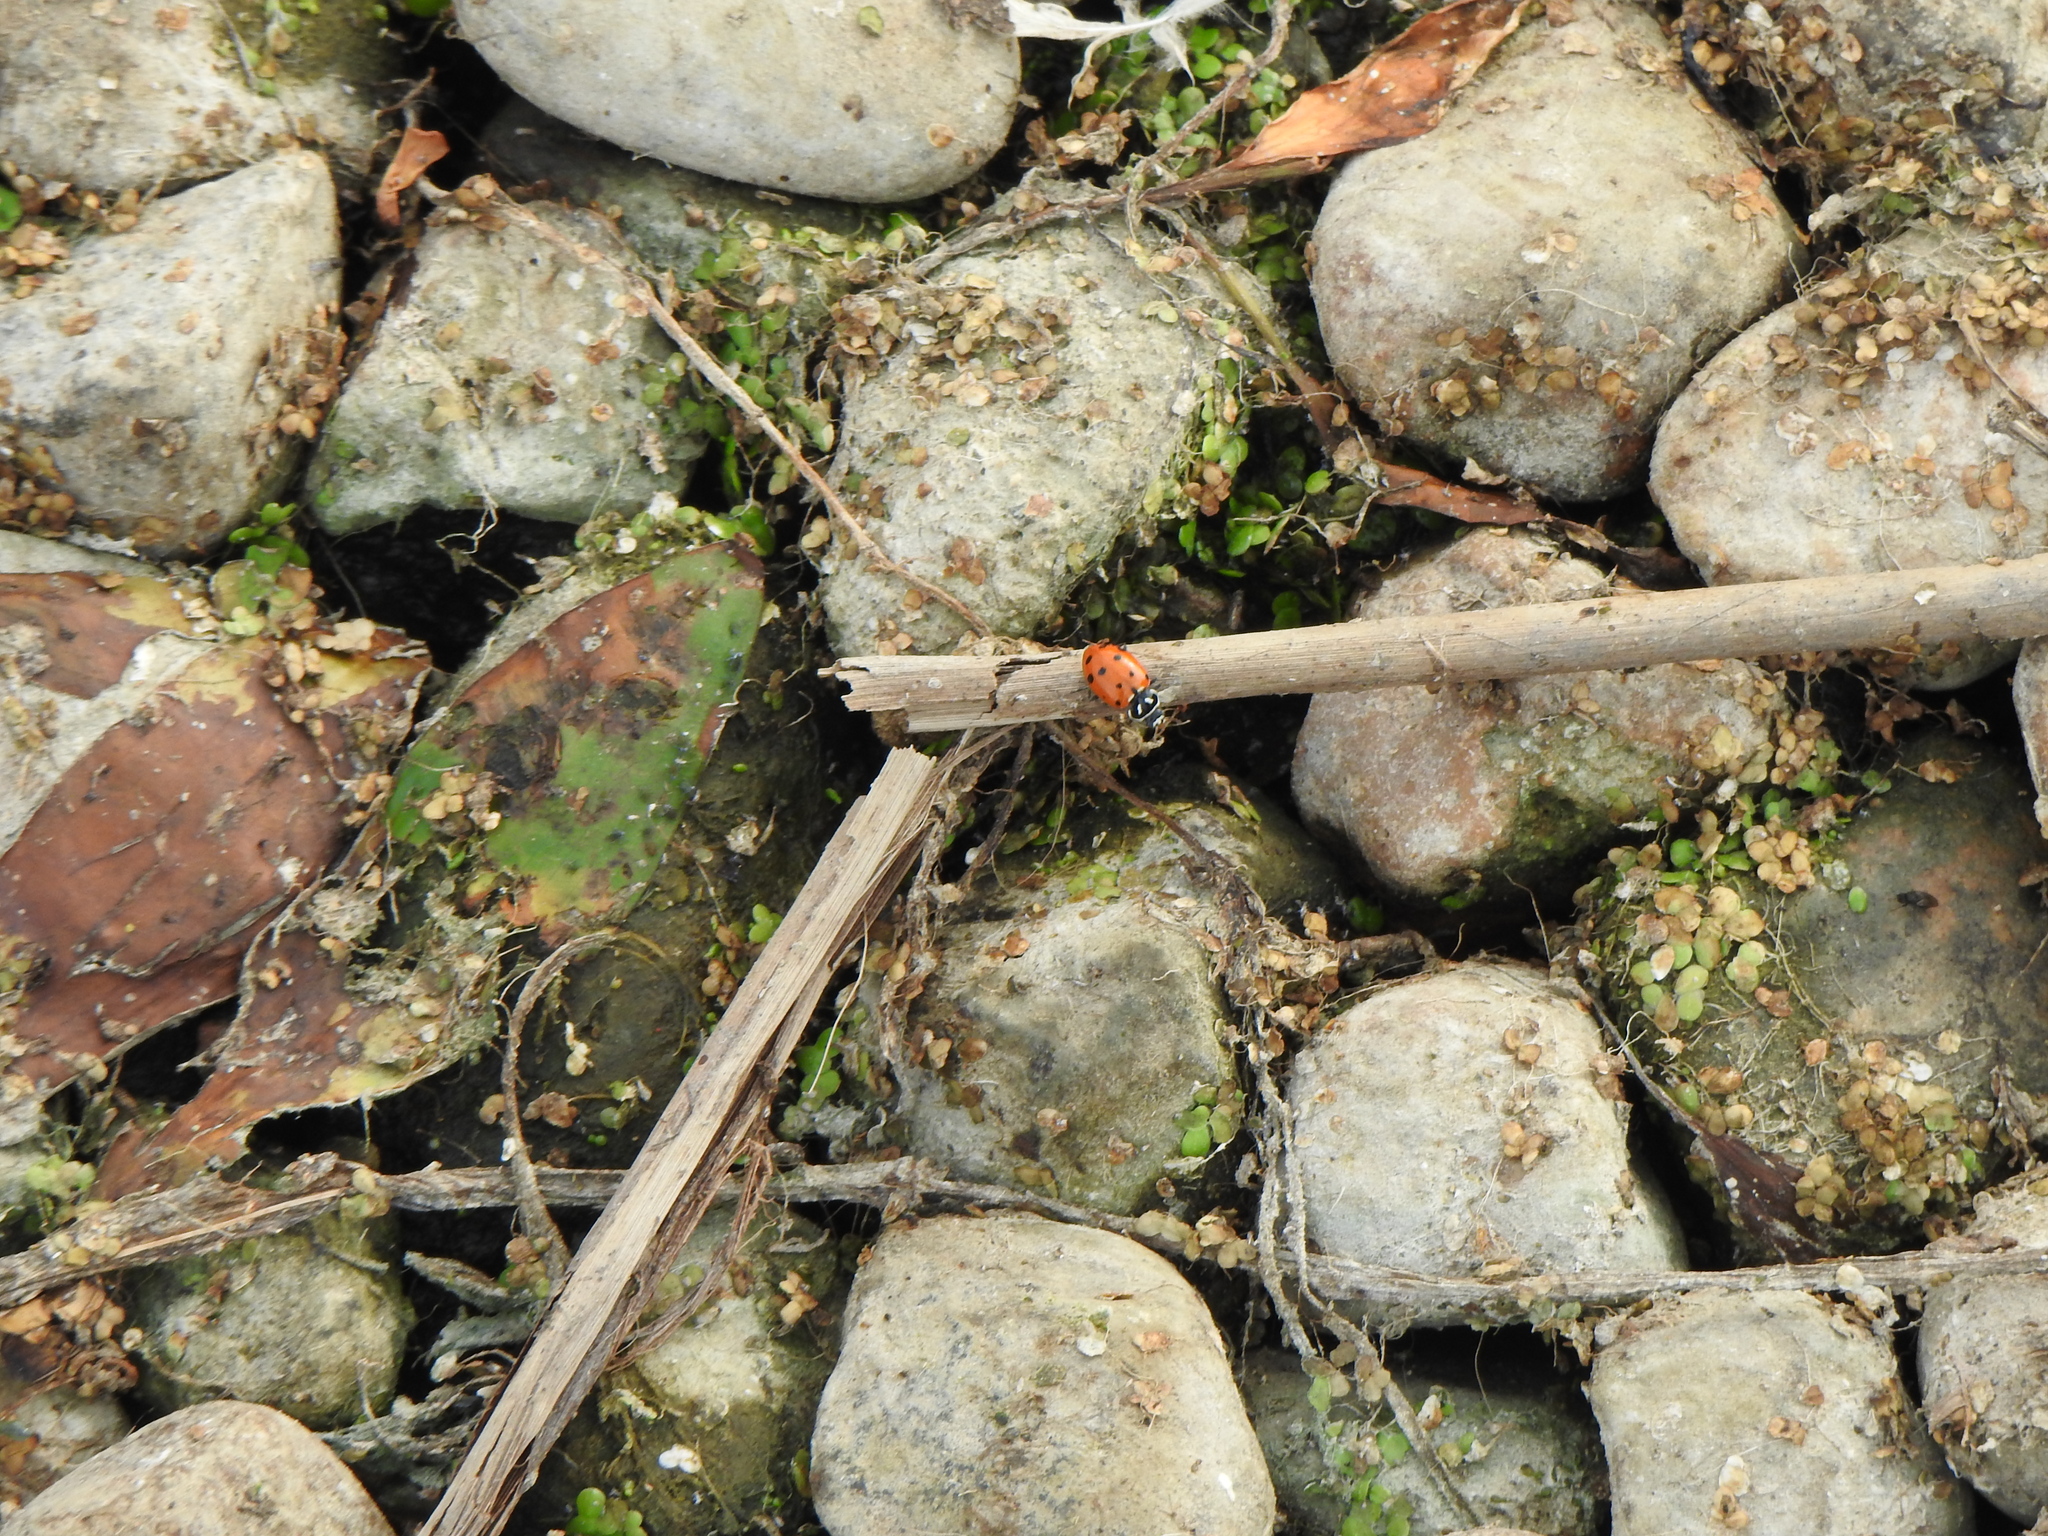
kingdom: Animalia
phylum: Arthropoda
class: Insecta
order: Coleoptera
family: Coccinellidae
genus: Hippodamia
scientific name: Hippodamia convergens
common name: Convergent lady beetle
